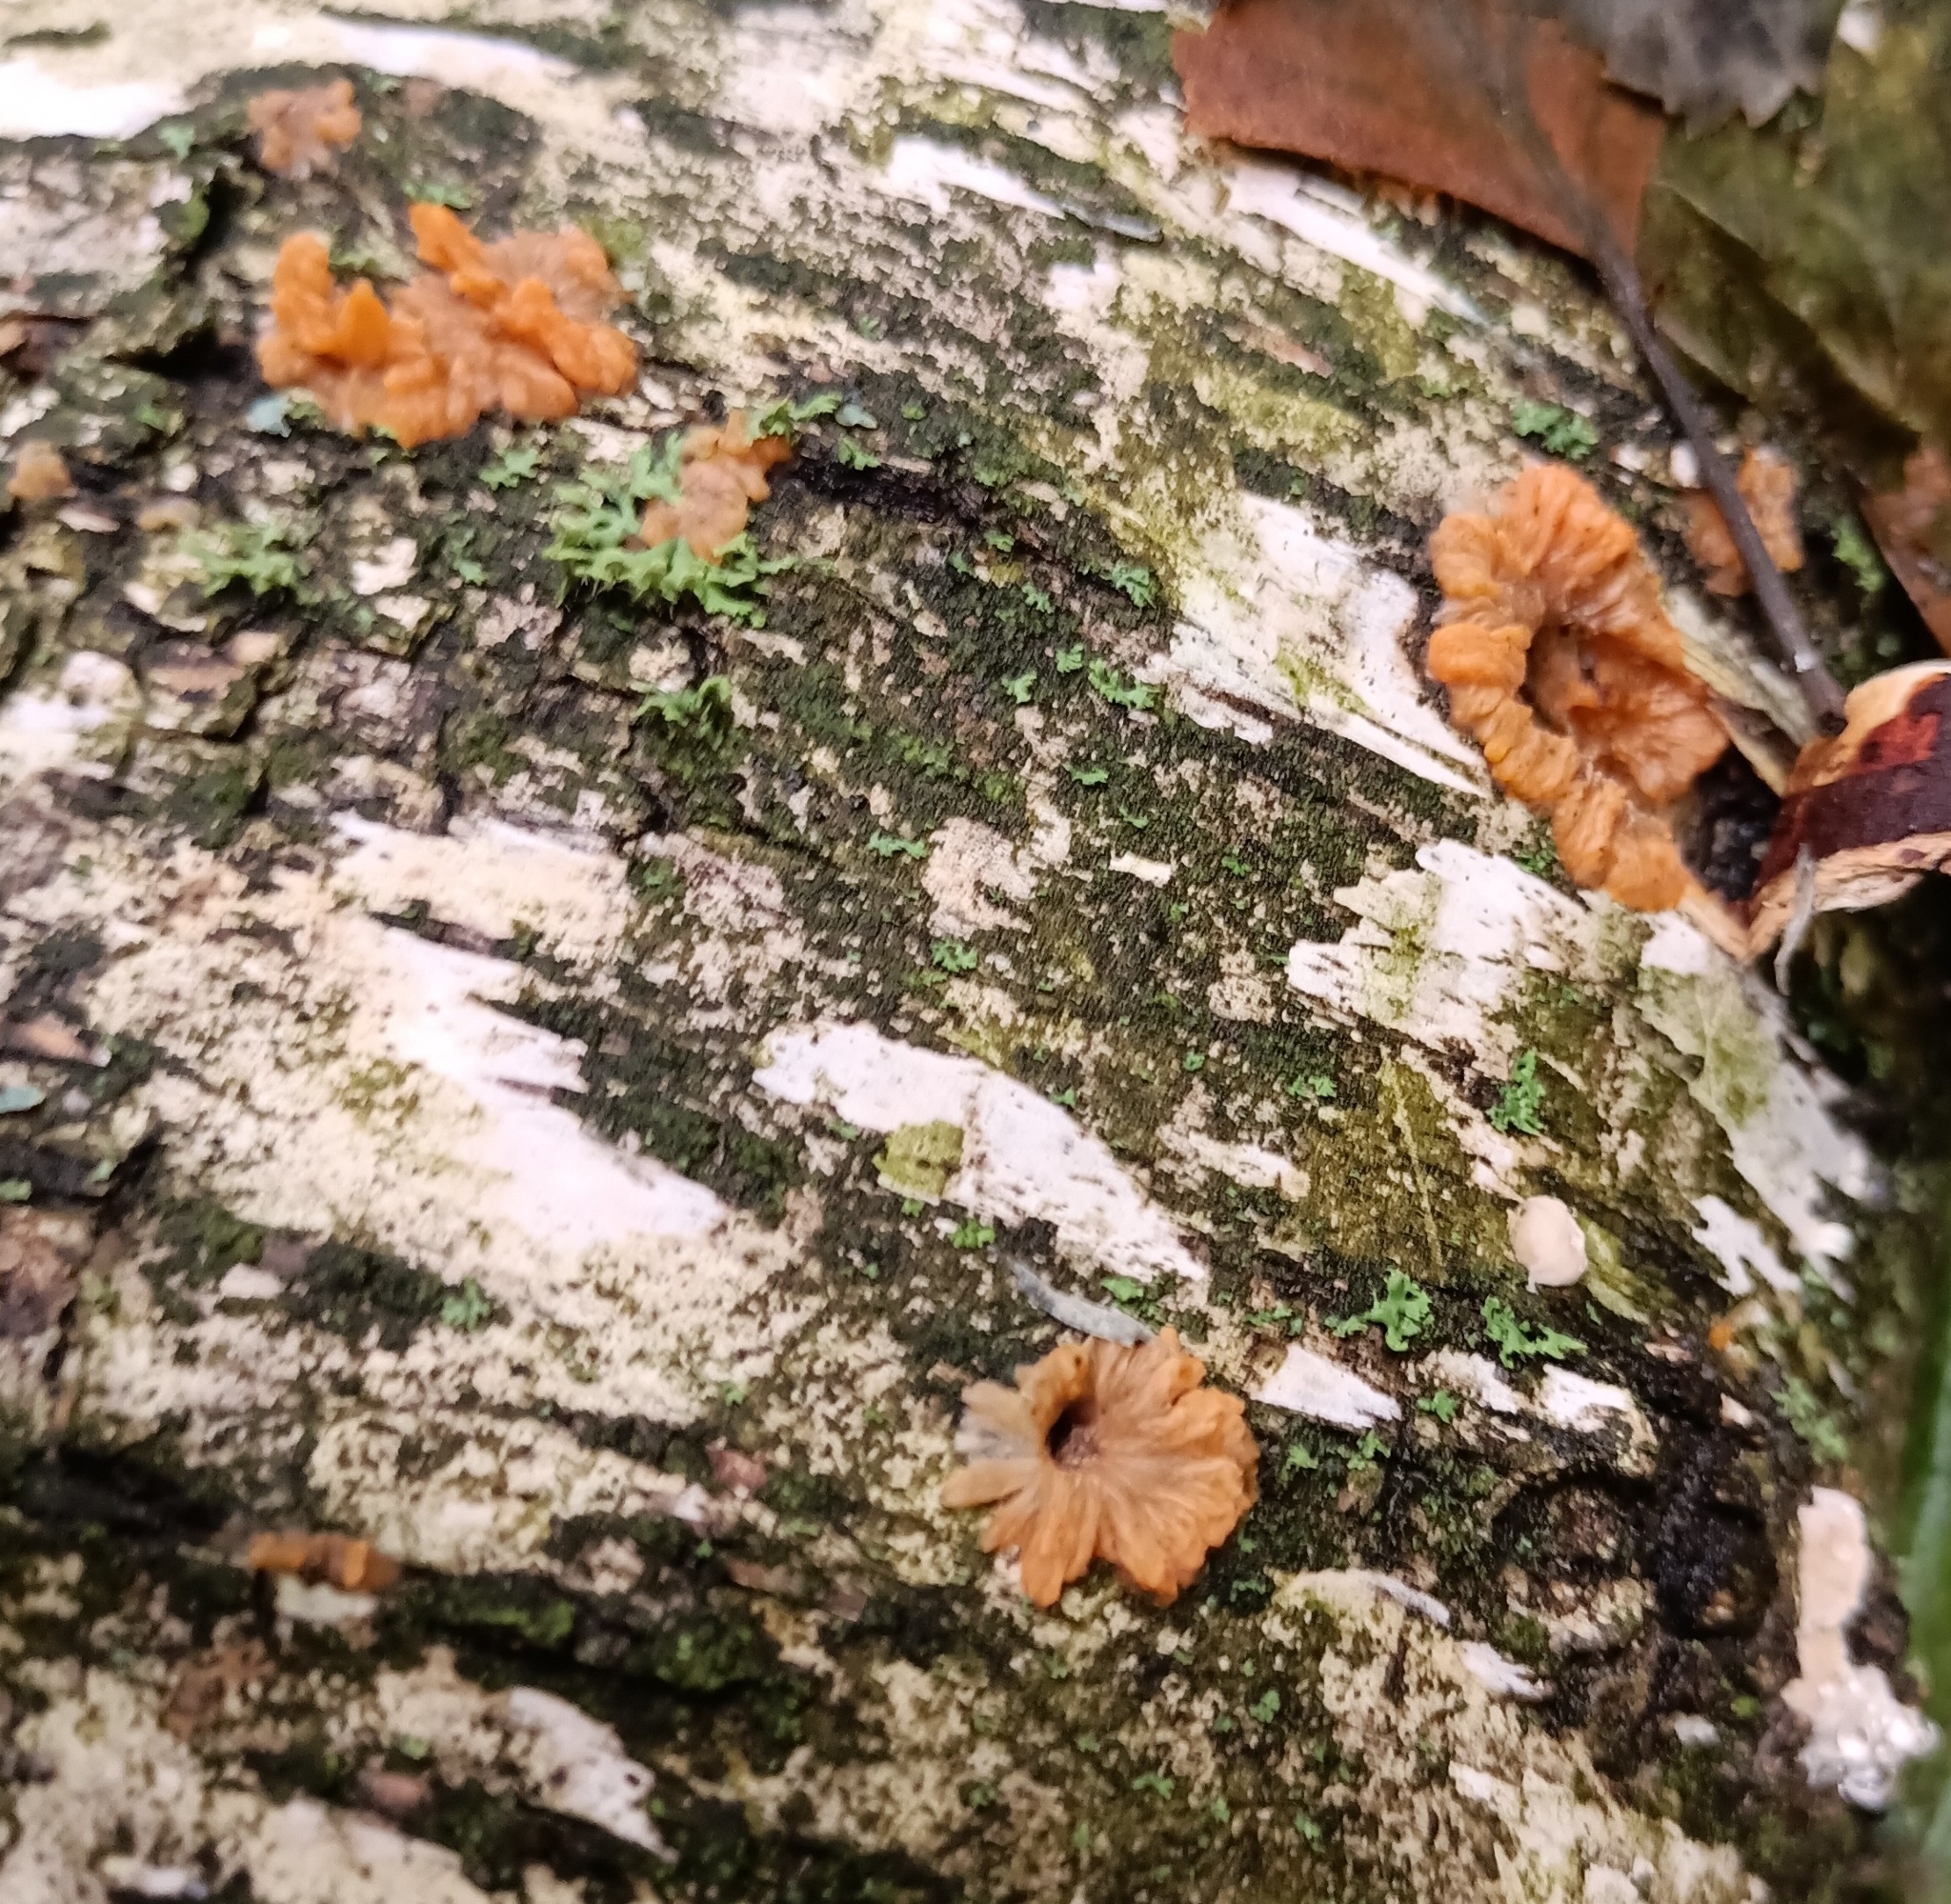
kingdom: Fungi
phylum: Basidiomycota
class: Agaricomycetes
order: Polyporales
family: Meruliaceae
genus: Phlebia
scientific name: Phlebia radiata
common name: Wrinkled crust
